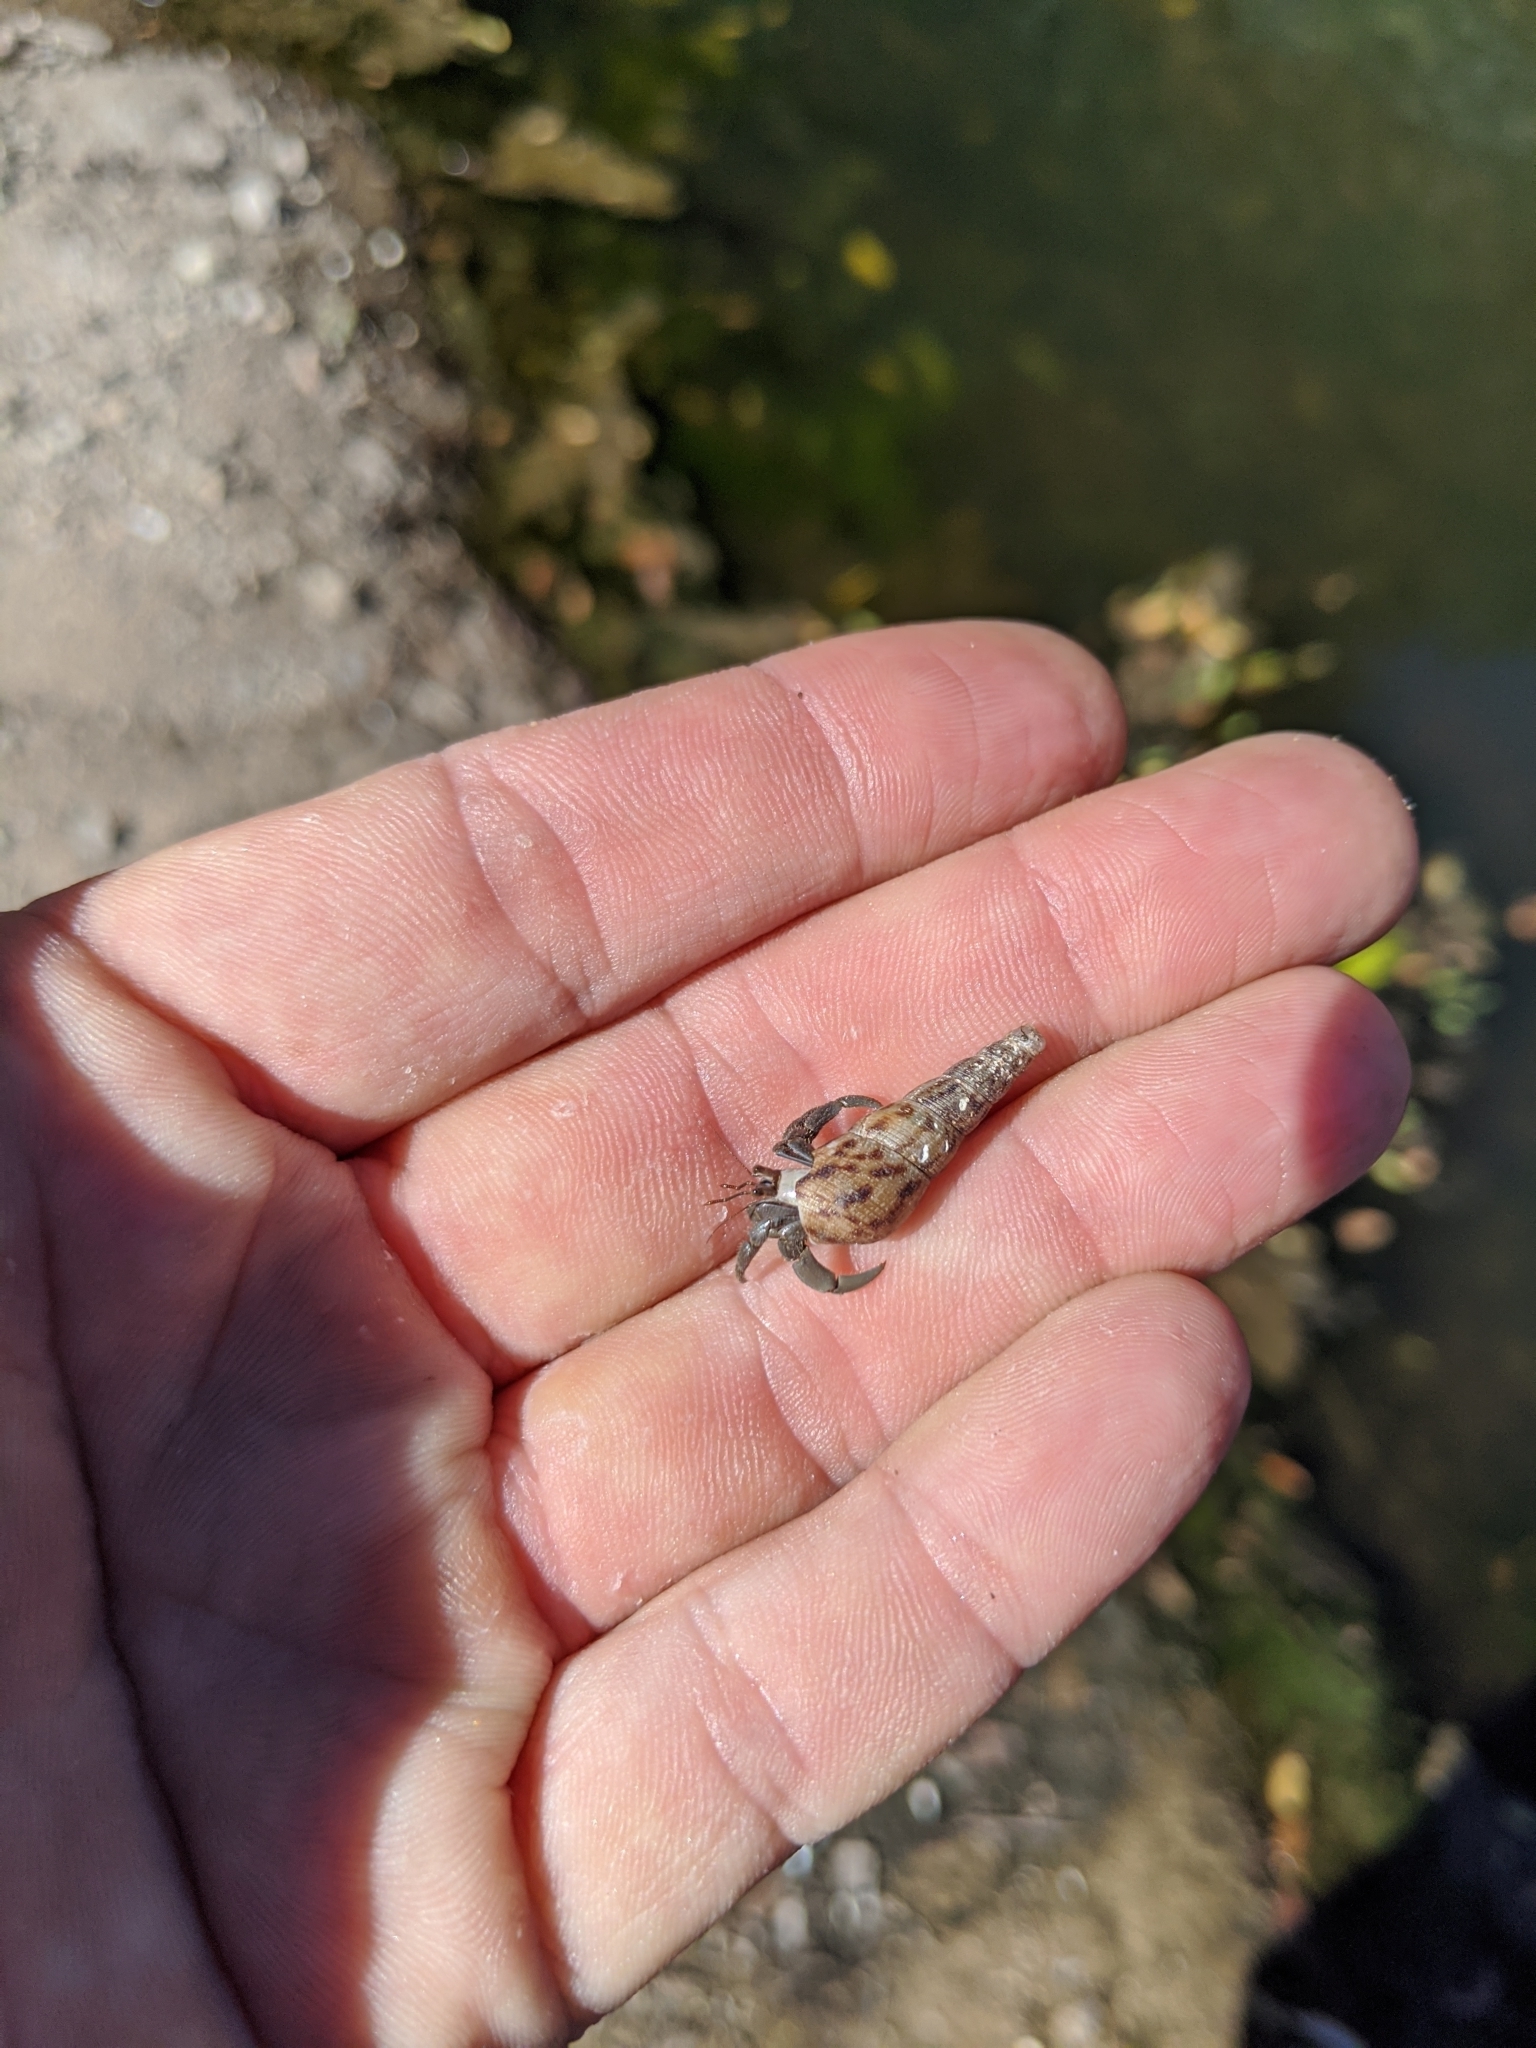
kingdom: Animalia
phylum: Arthropoda
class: Malacostraca
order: Decapoda
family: Coenobitidae
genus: Coenobita
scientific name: Coenobita compressus
